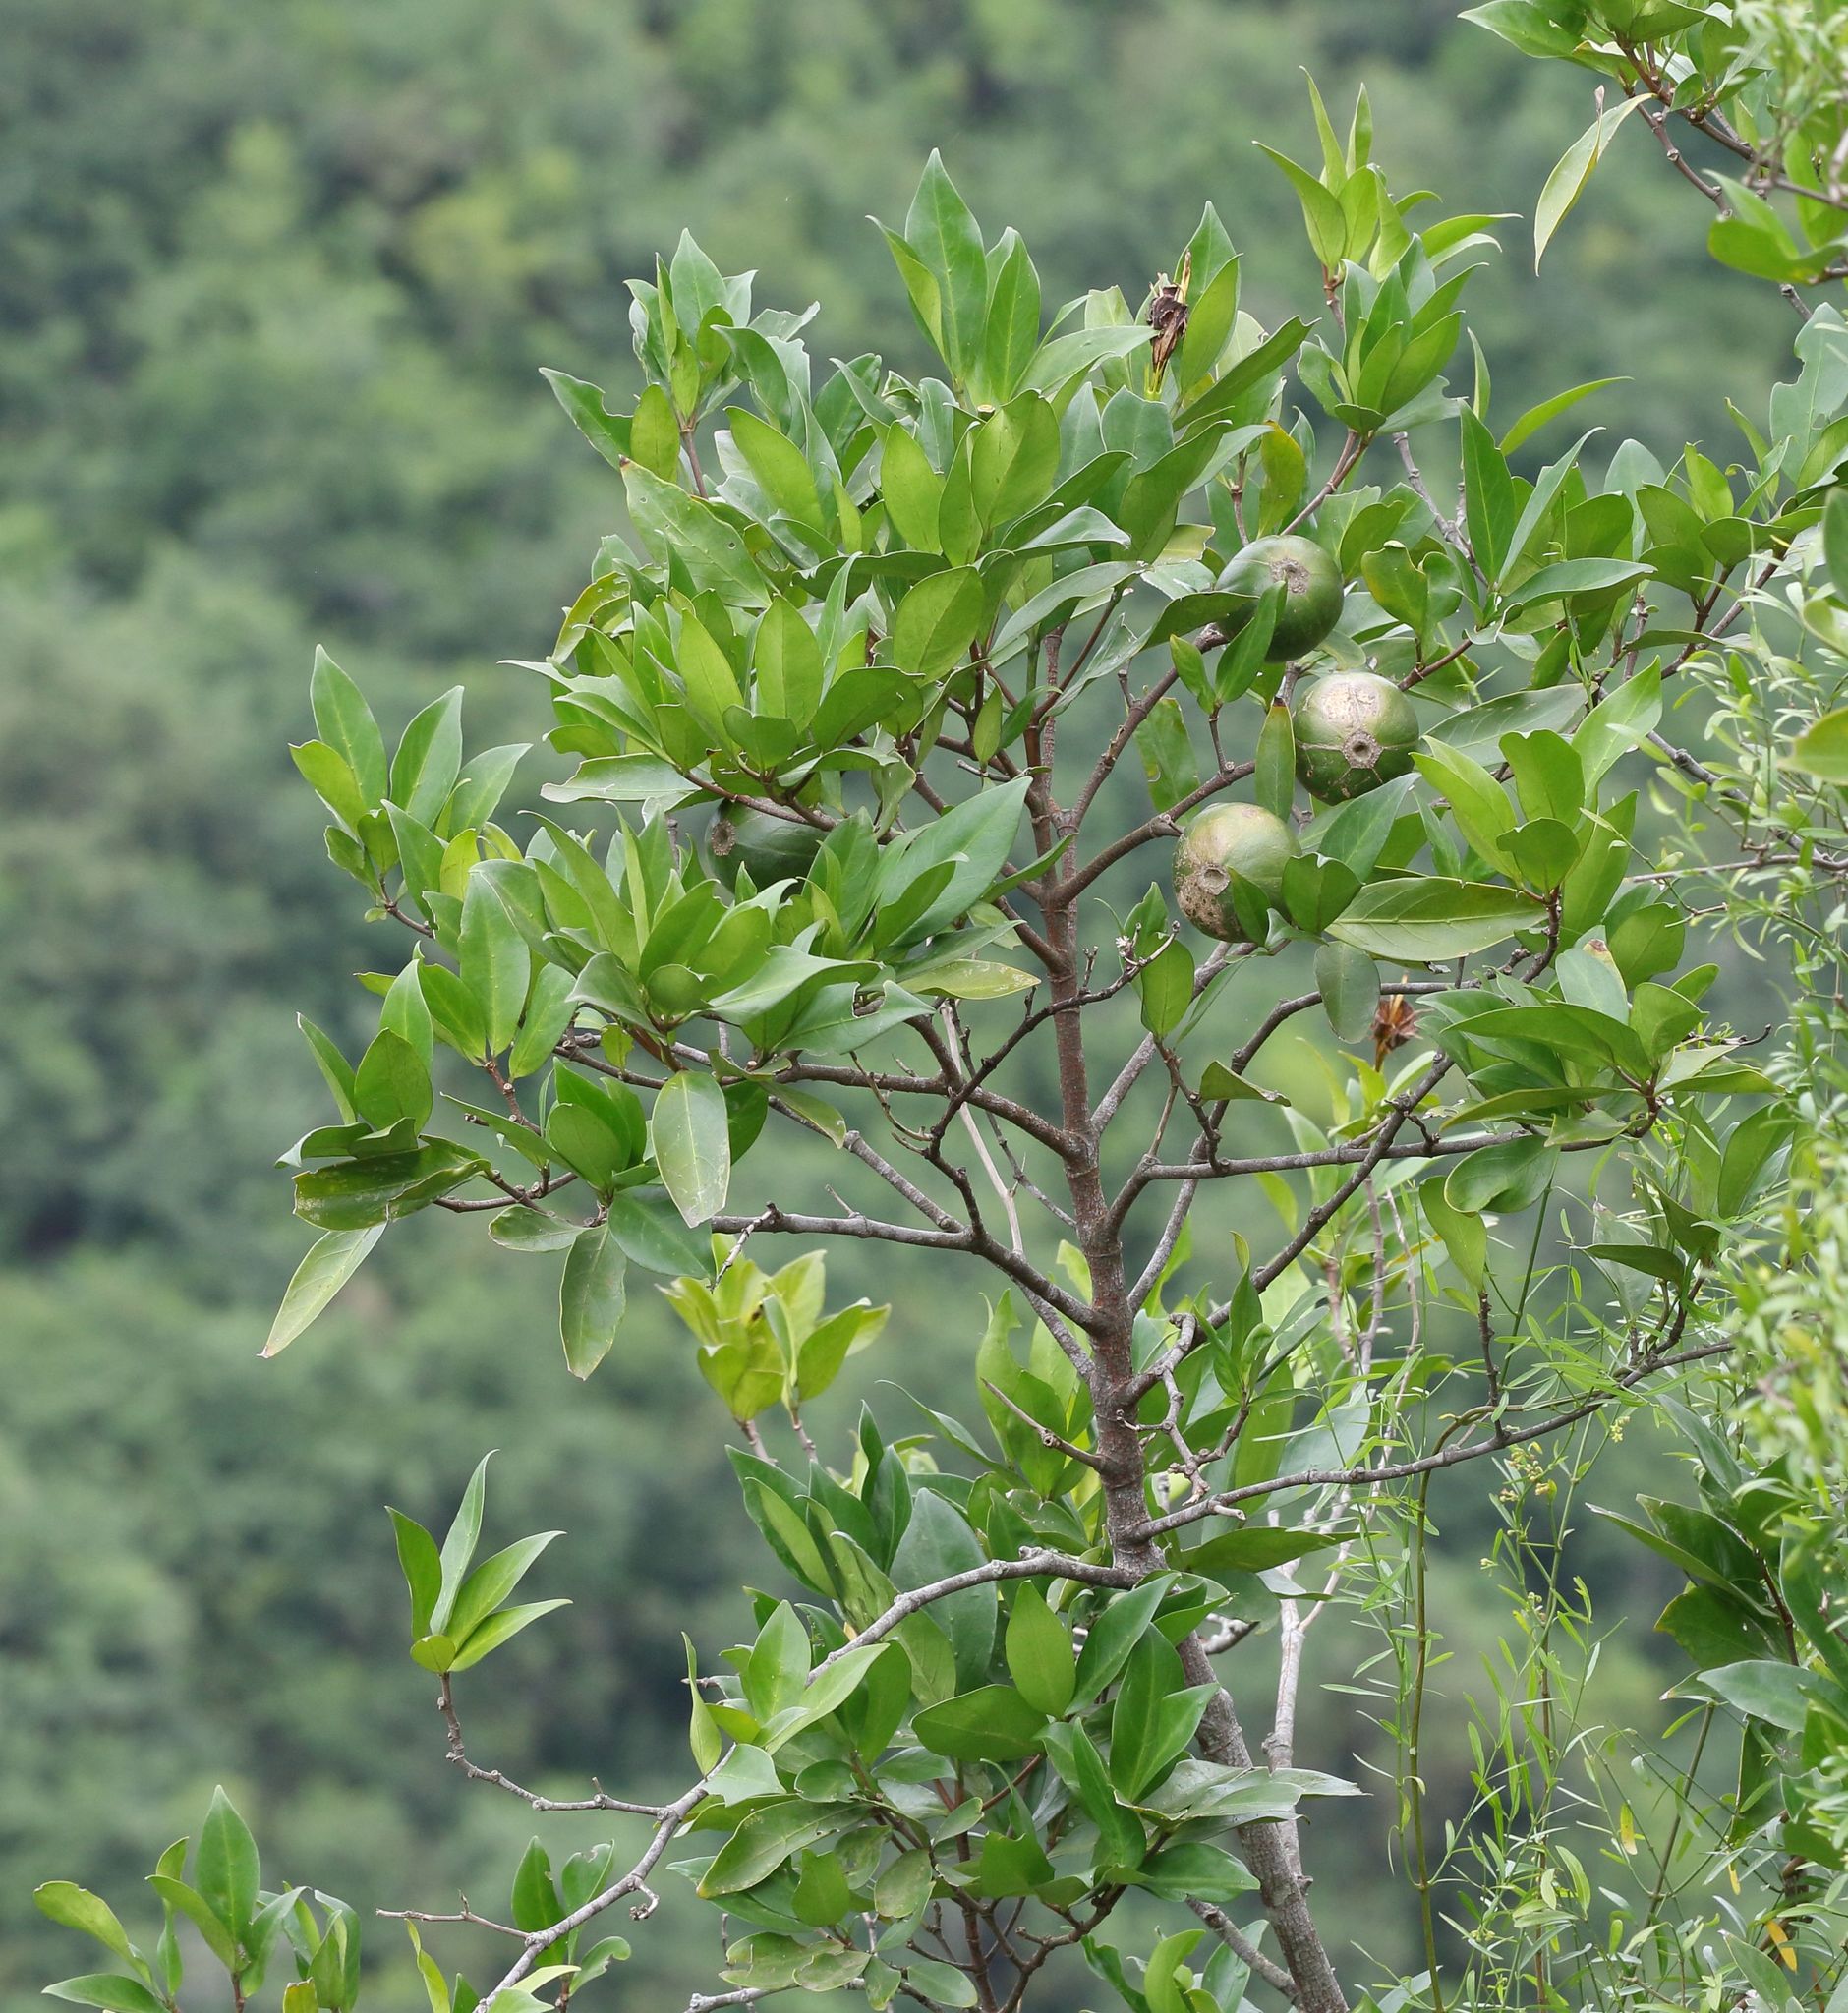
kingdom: Plantae
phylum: Tracheophyta
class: Magnoliopsida
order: Gentianales
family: Rubiaceae
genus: Rothmannia
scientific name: Rothmannia capensis
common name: Cape gardenia
